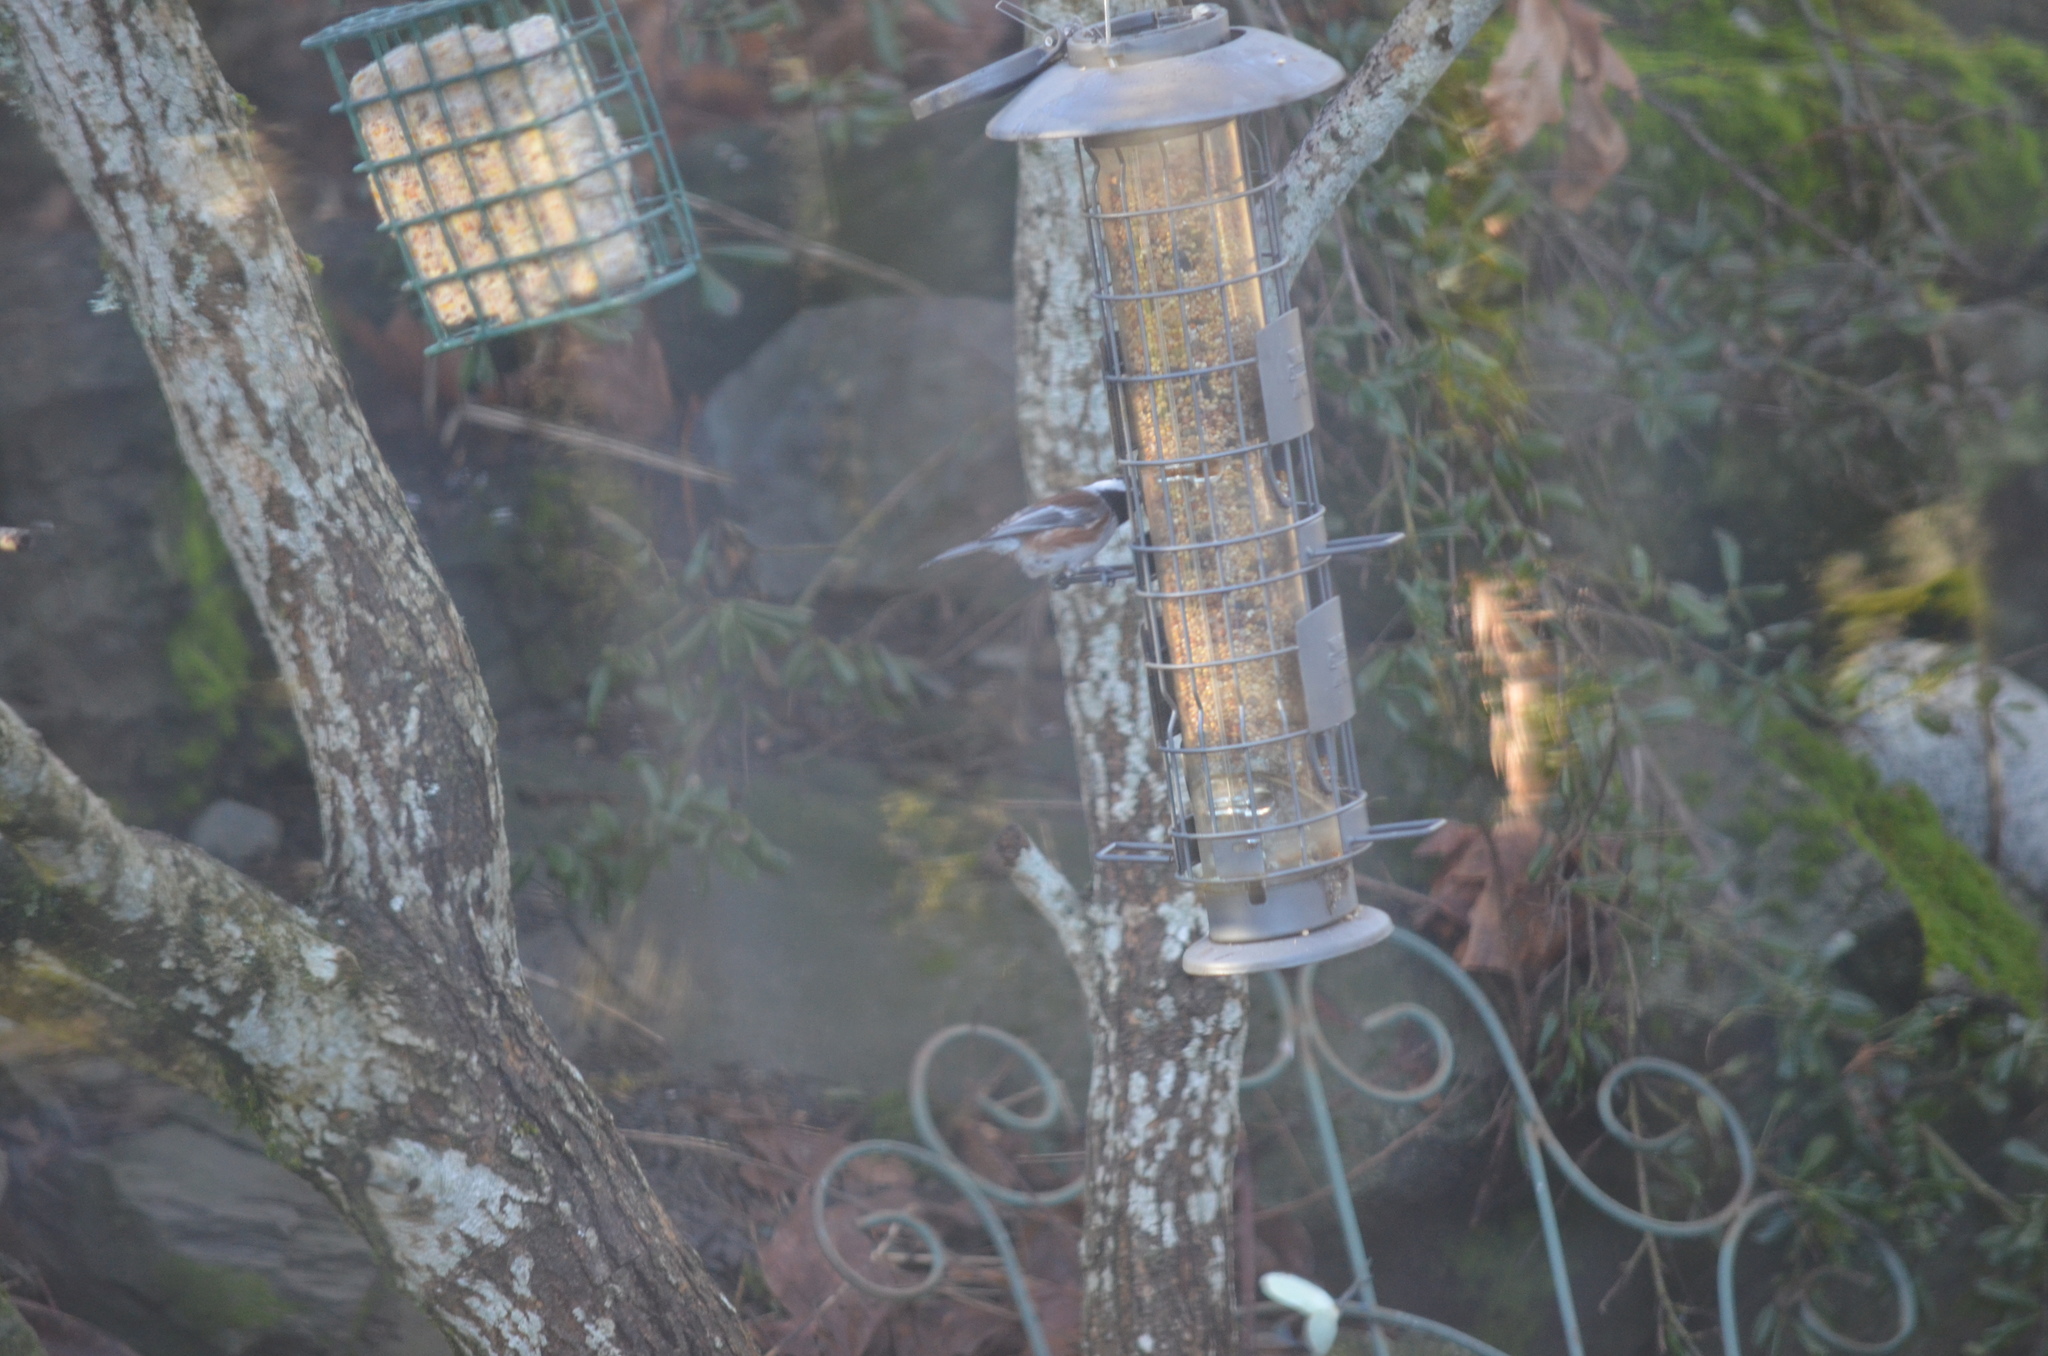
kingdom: Animalia
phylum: Chordata
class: Aves
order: Passeriformes
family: Paridae
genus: Poecile
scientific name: Poecile rufescens
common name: Chestnut-backed chickadee
